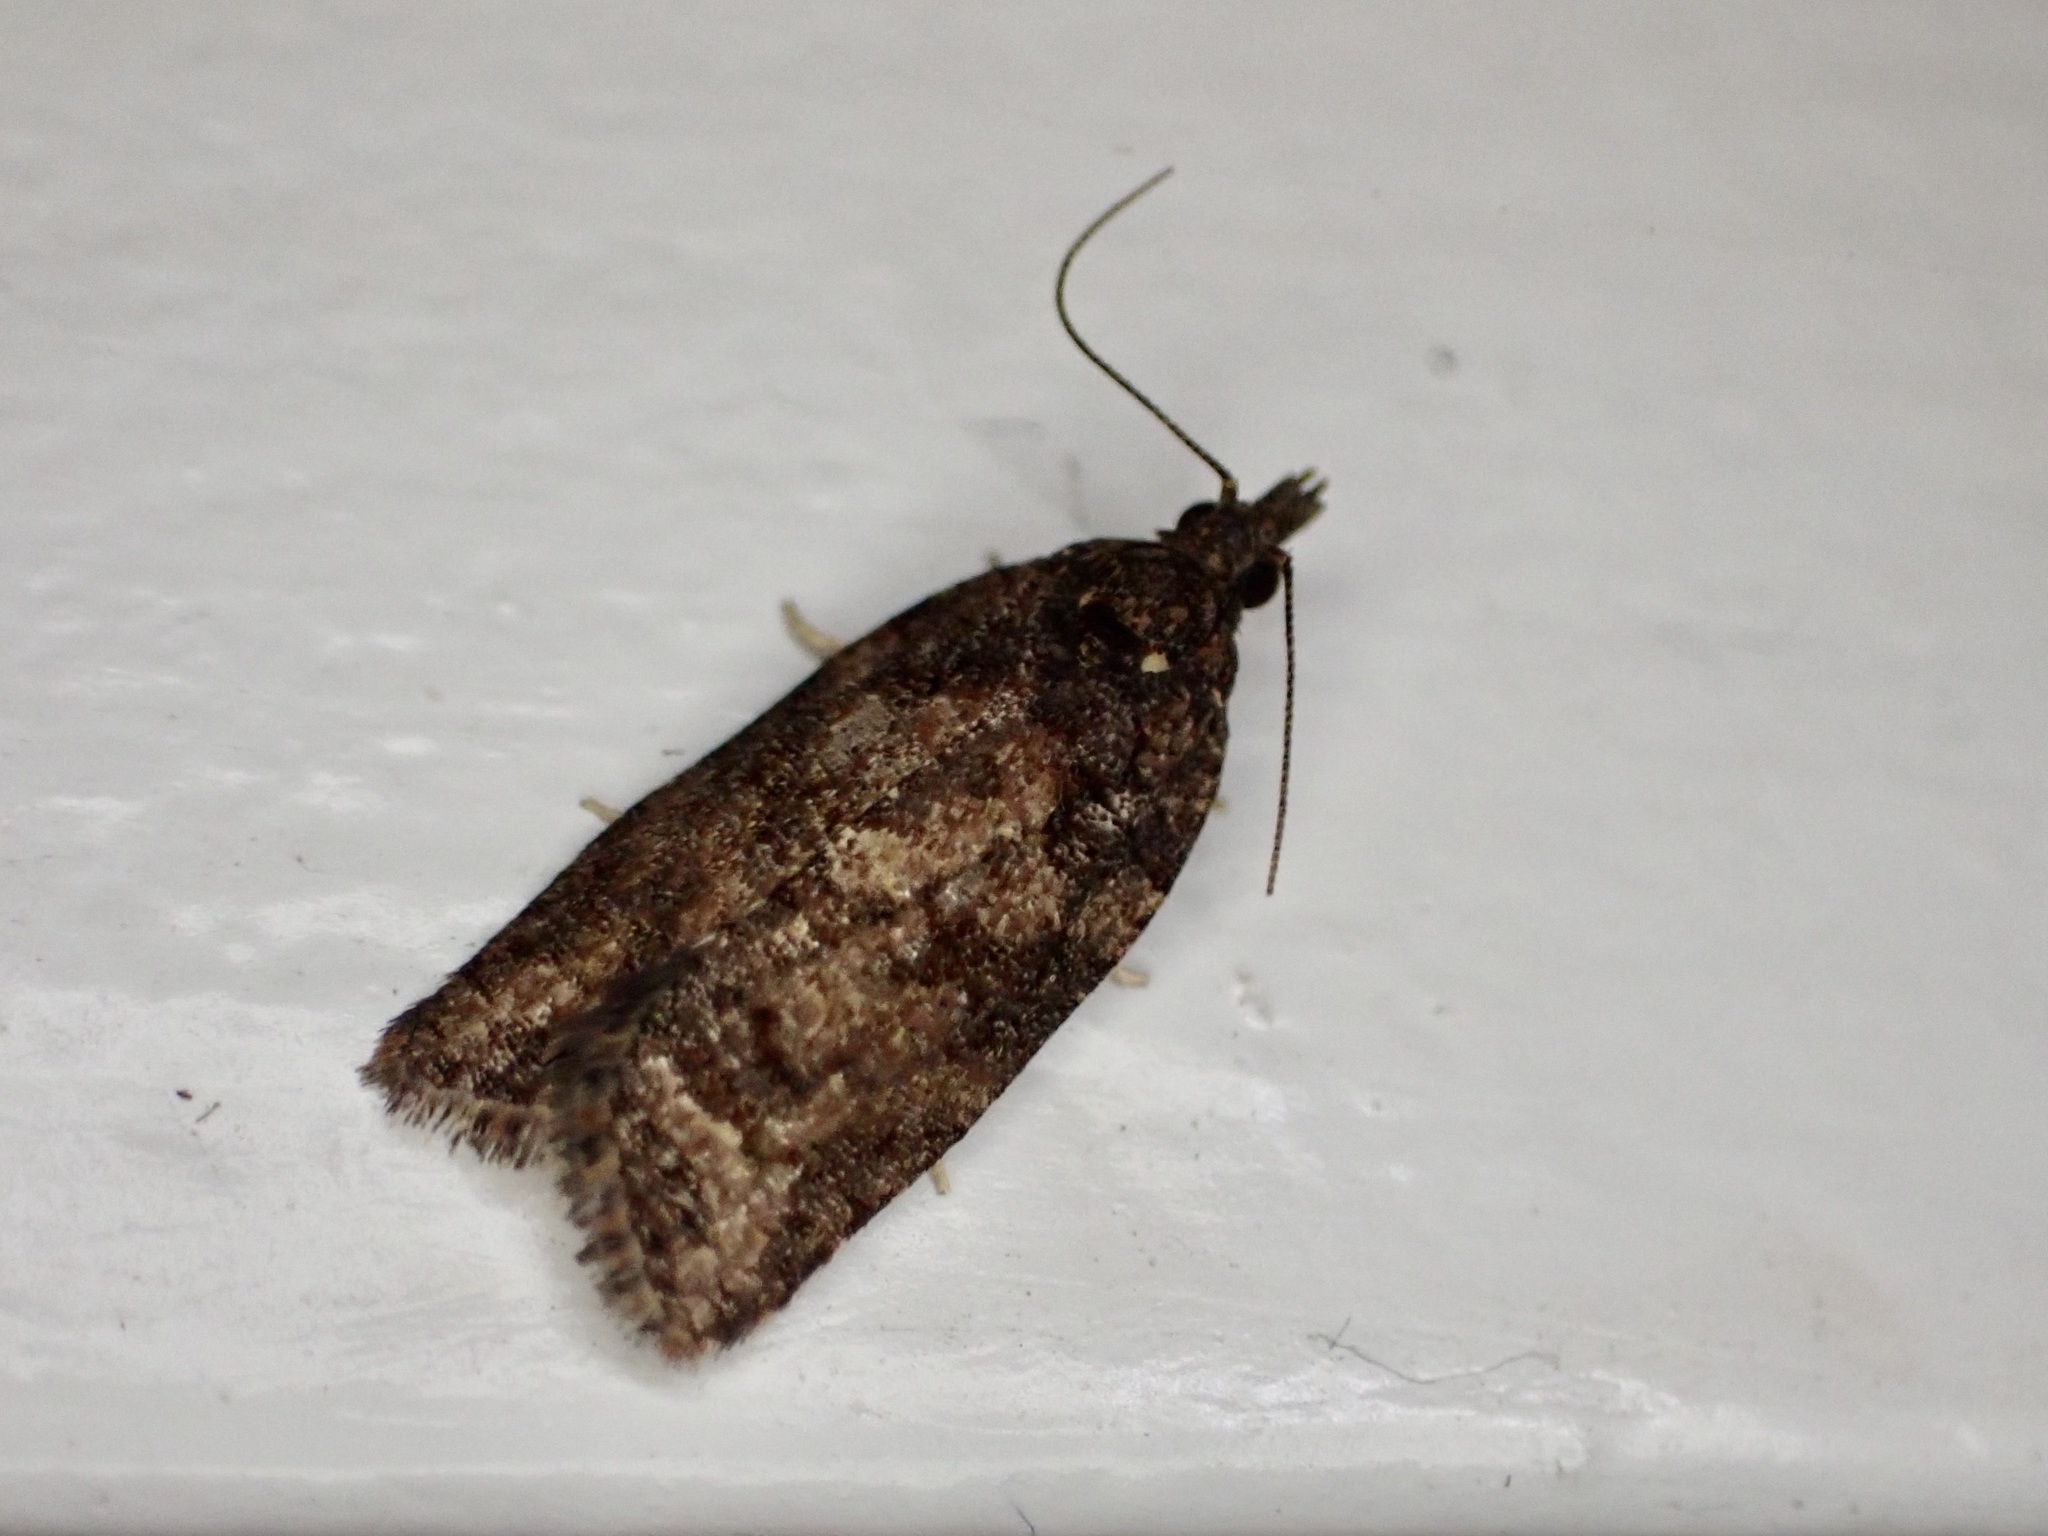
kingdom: Animalia
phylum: Arthropoda
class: Insecta
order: Lepidoptera
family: Tortricidae
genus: Capua
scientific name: Capua intractana
